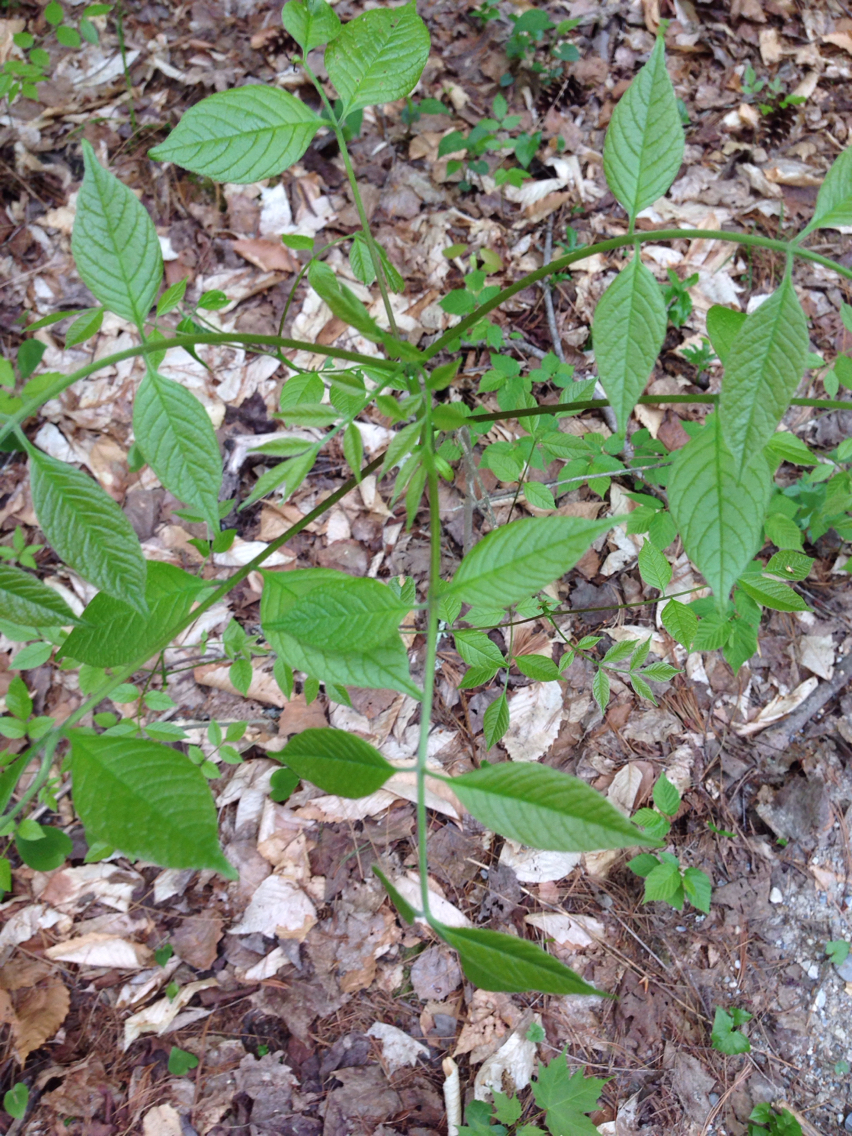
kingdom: Plantae
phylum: Tracheophyta
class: Magnoliopsida
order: Lamiales
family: Oleaceae
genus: Fraxinus
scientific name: Fraxinus americana
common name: White ash
